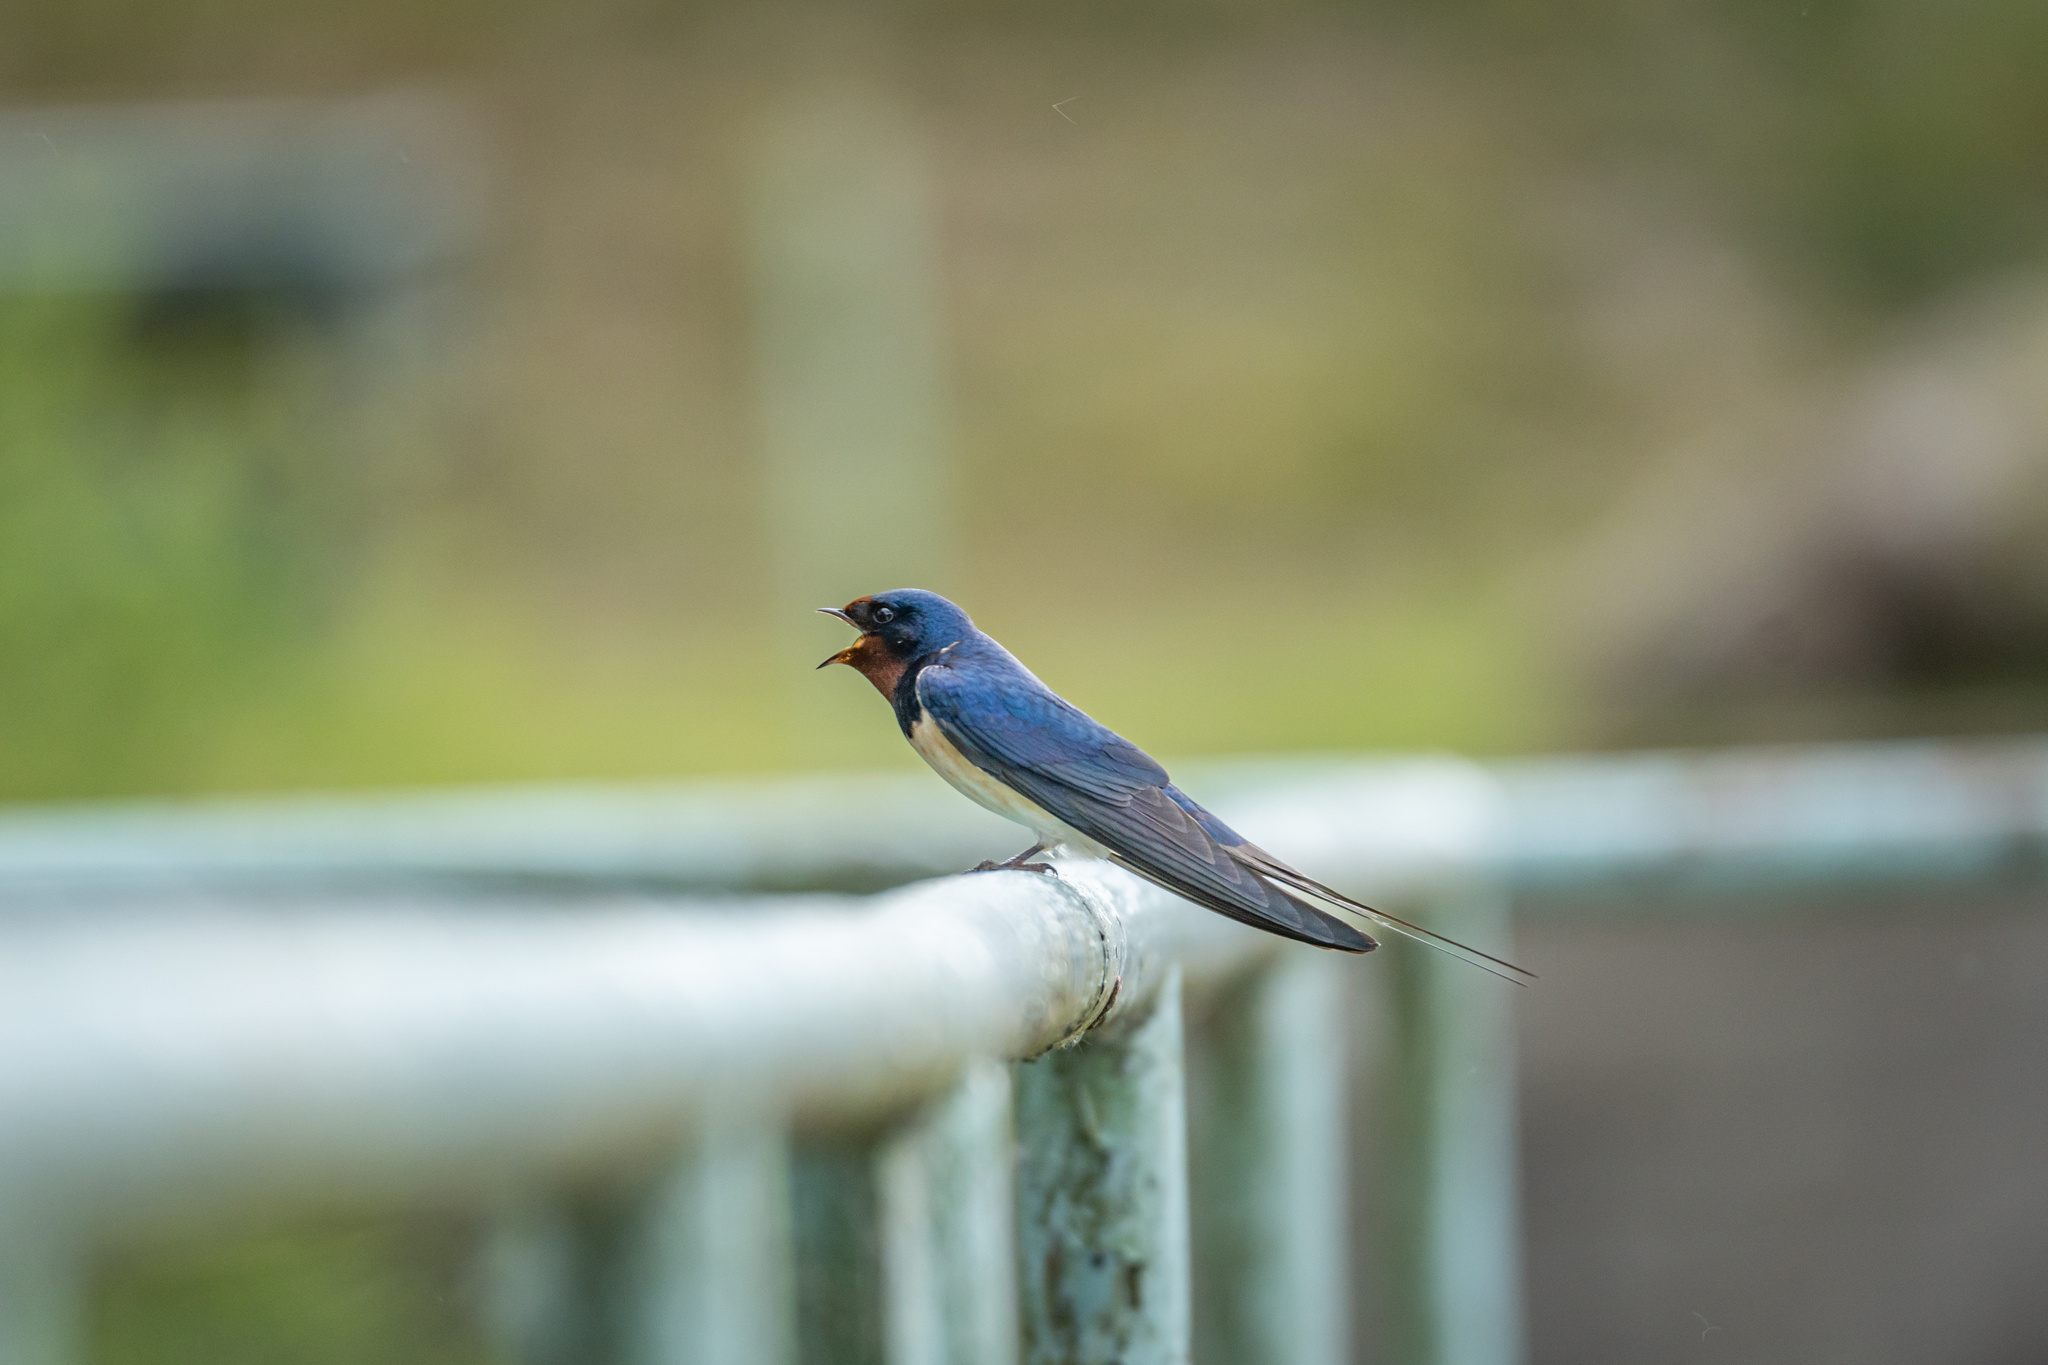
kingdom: Animalia
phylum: Chordata
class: Aves
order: Passeriformes
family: Hirundinidae
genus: Hirundo
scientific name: Hirundo rustica
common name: Barn swallow
